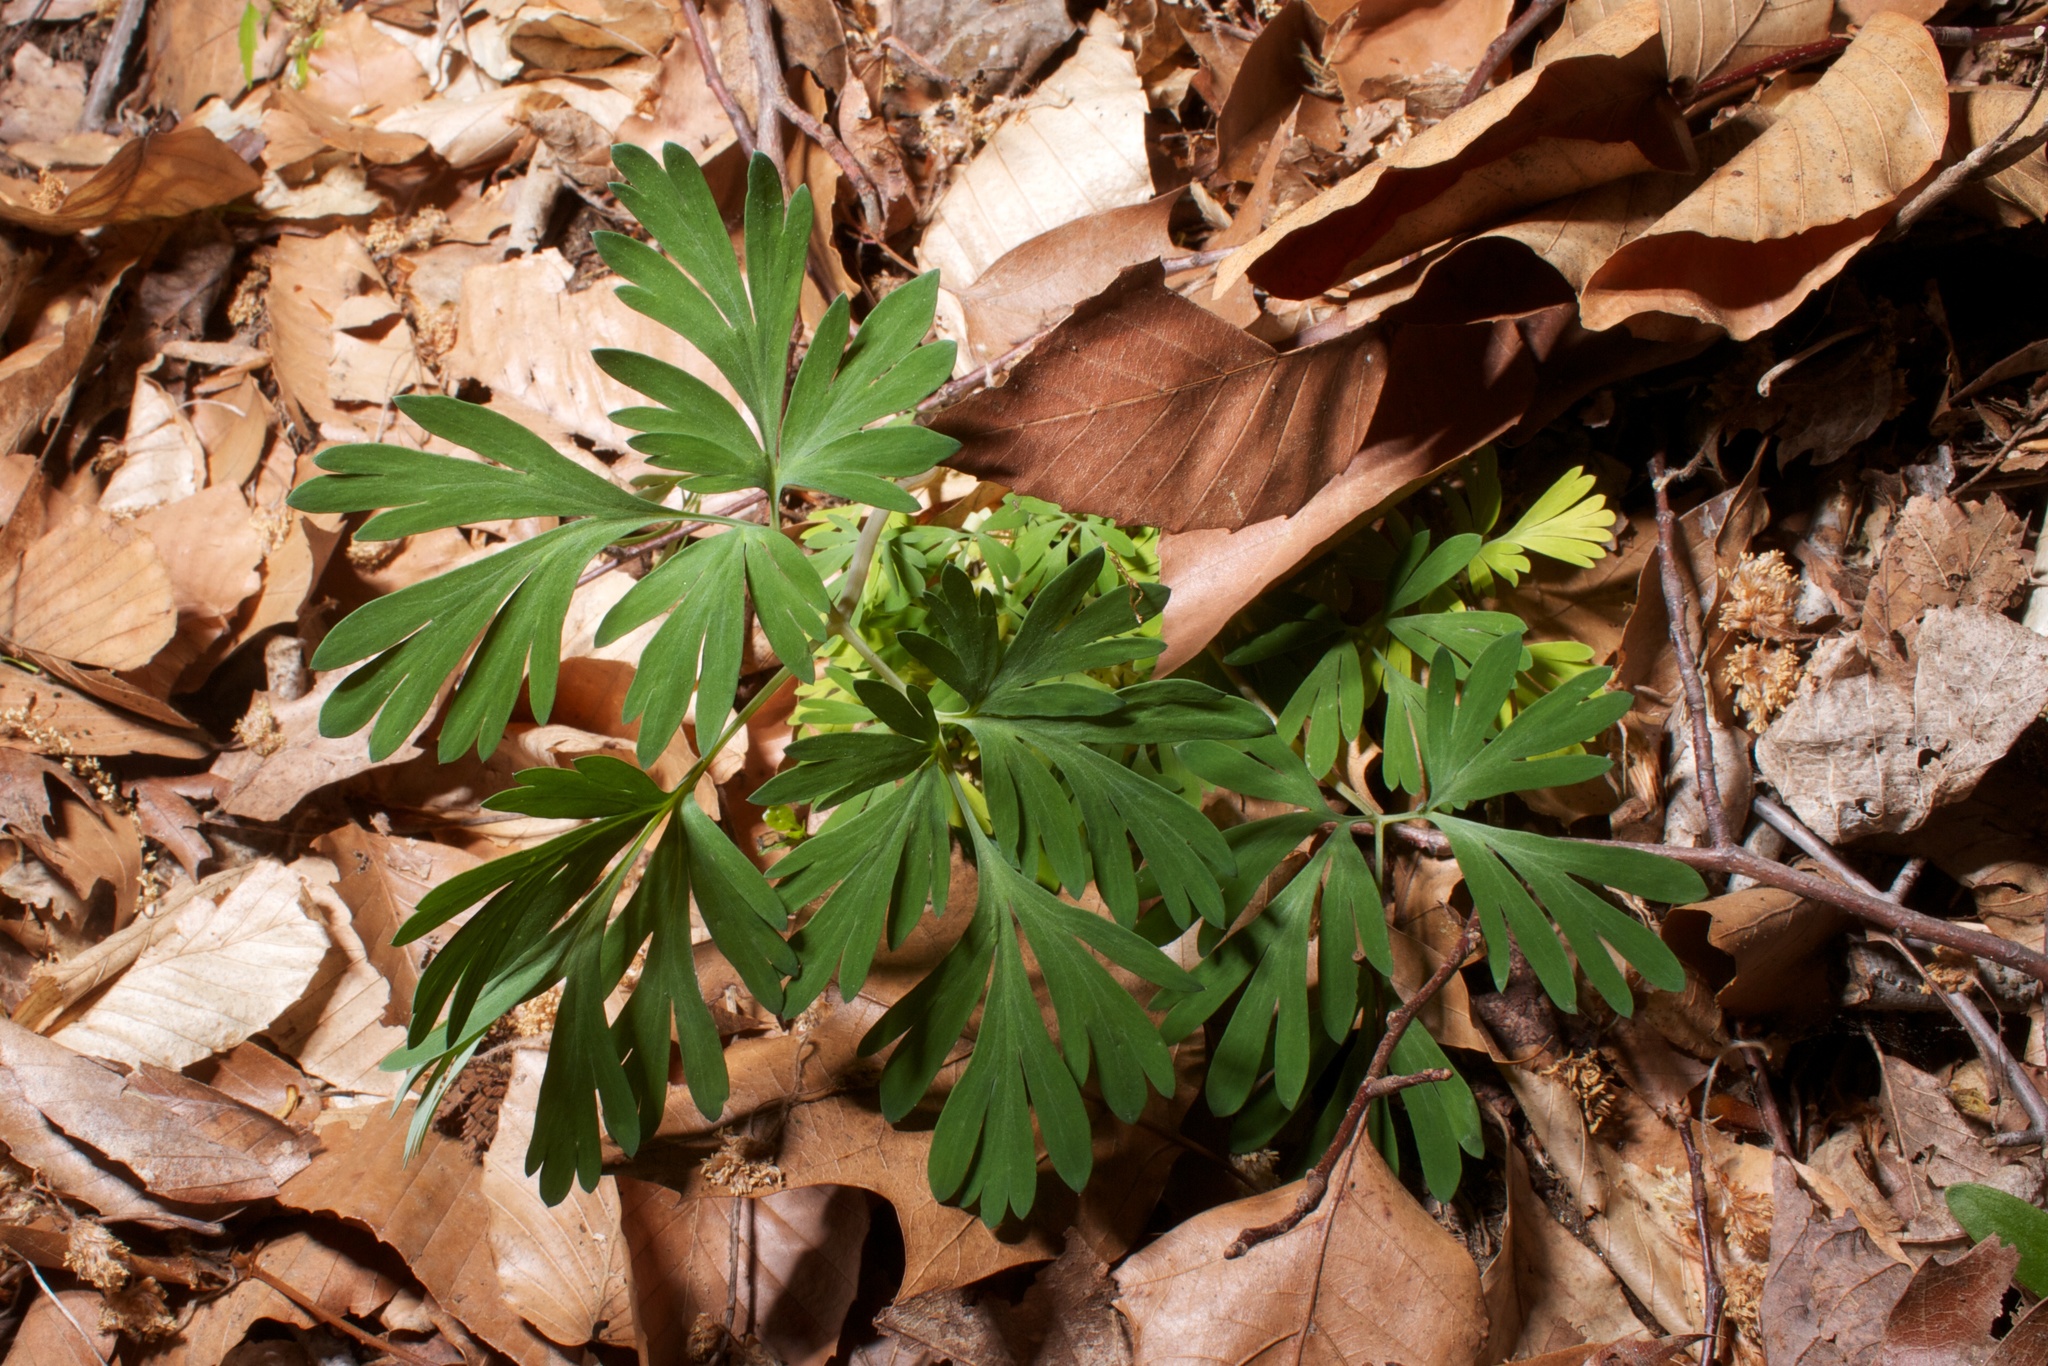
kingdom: Plantae
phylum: Tracheophyta
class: Magnoliopsida
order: Ranunculales
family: Papaveraceae
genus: Dicentra
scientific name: Dicentra
